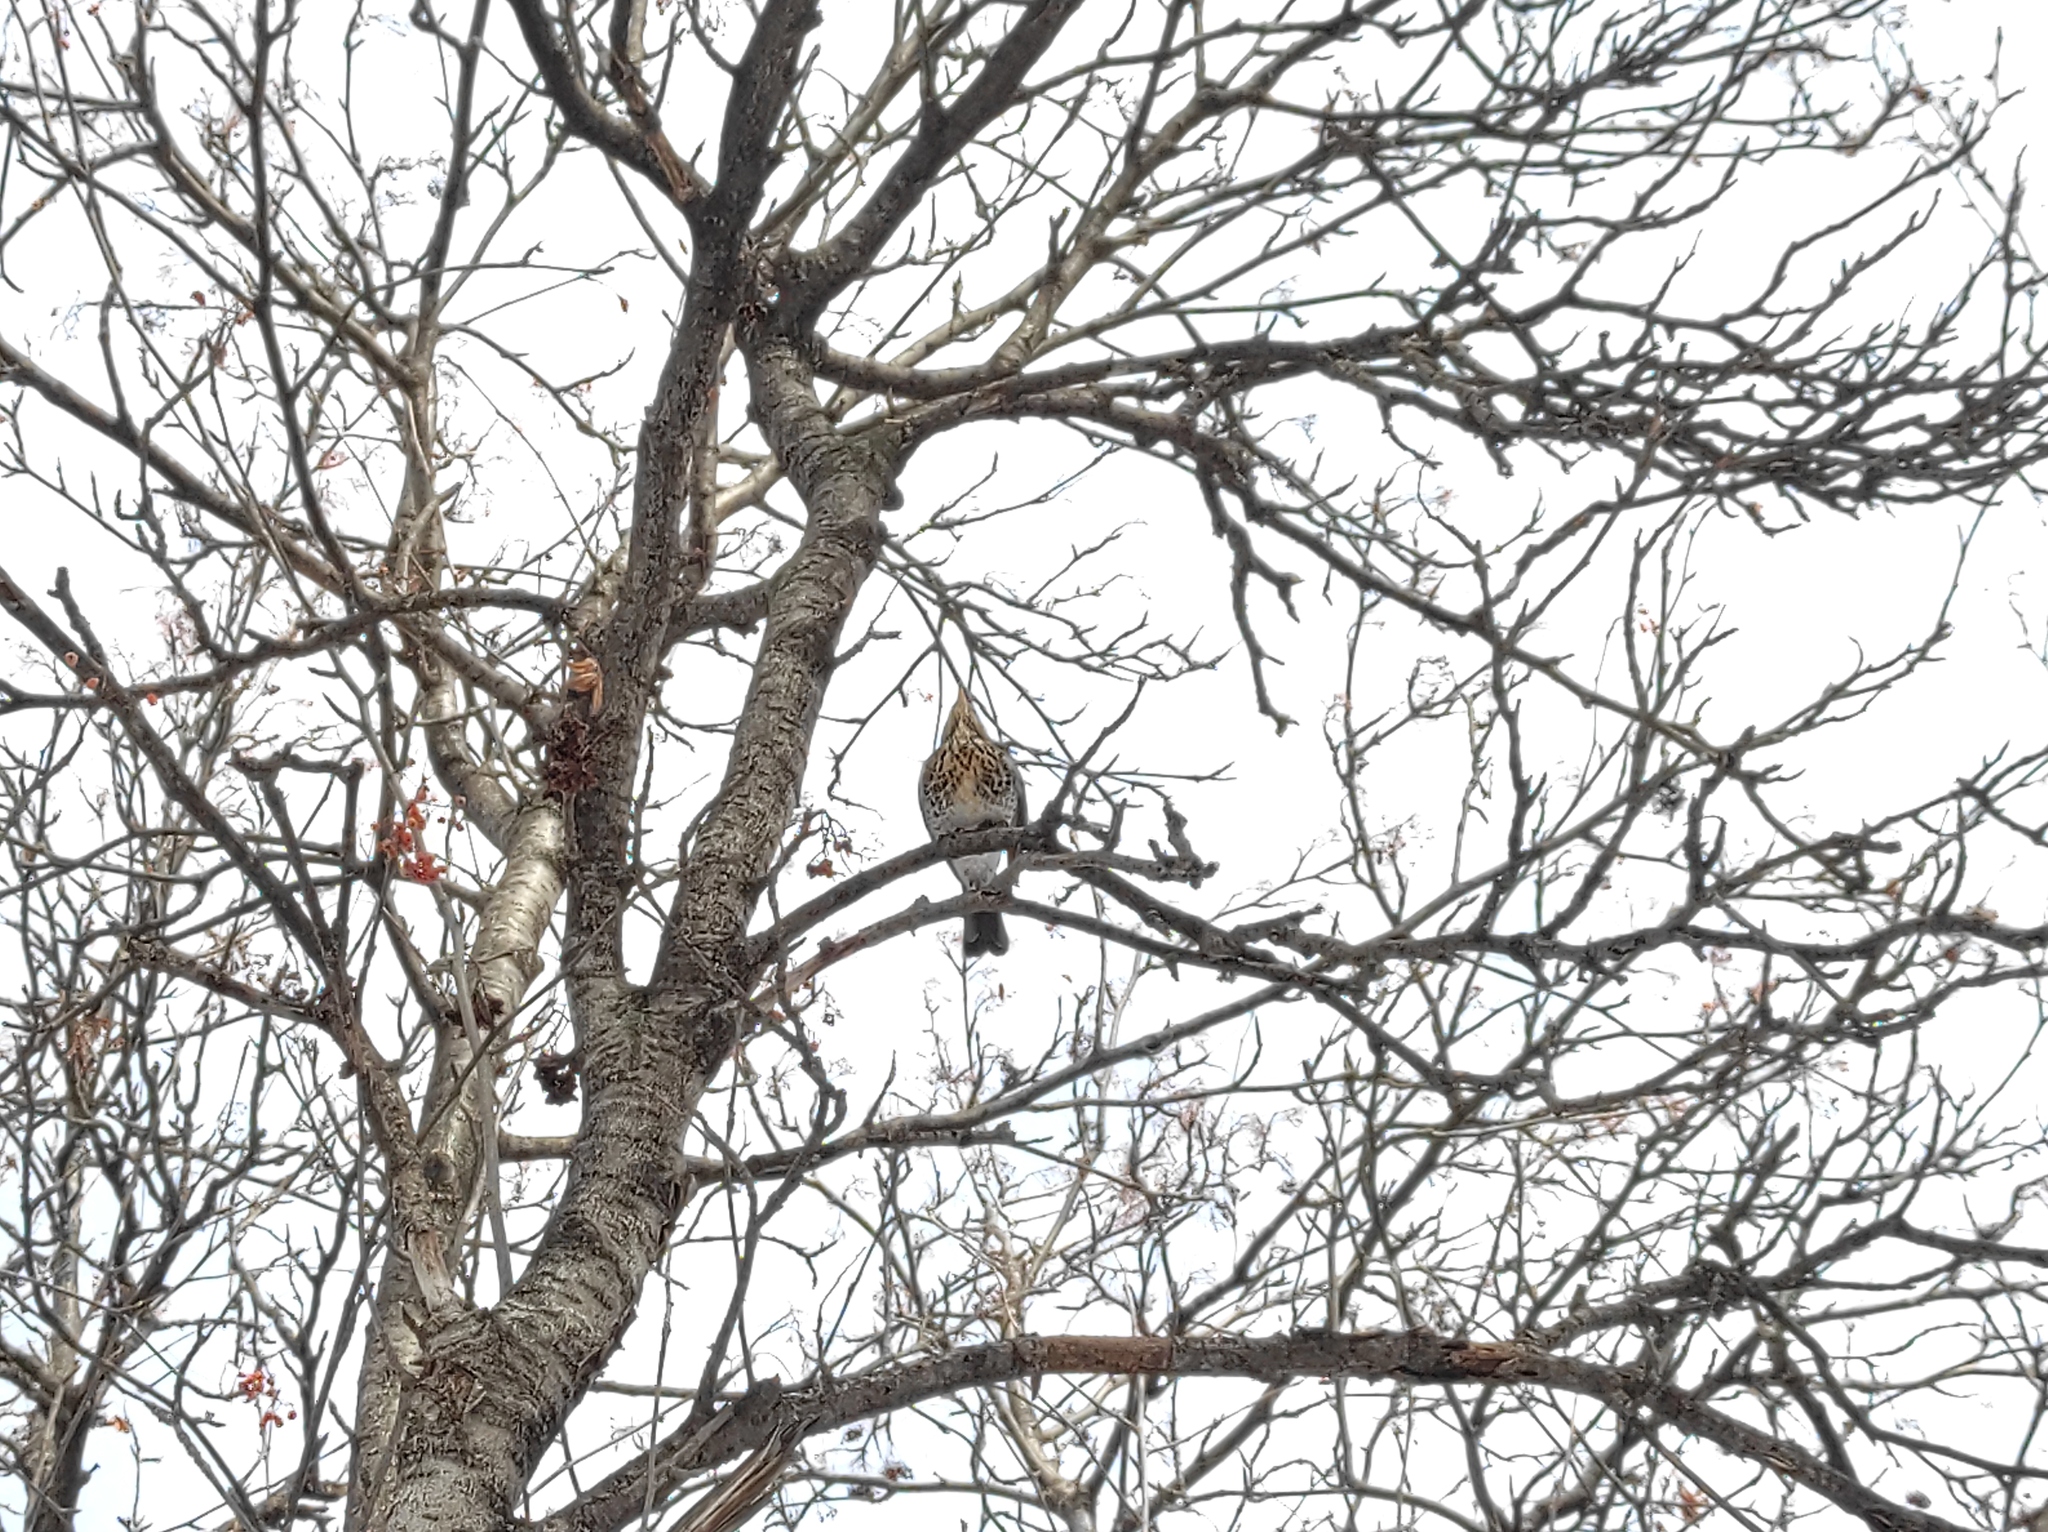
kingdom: Animalia
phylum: Chordata
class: Aves
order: Passeriformes
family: Turdidae
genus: Turdus
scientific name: Turdus pilaris
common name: Fieldfare
